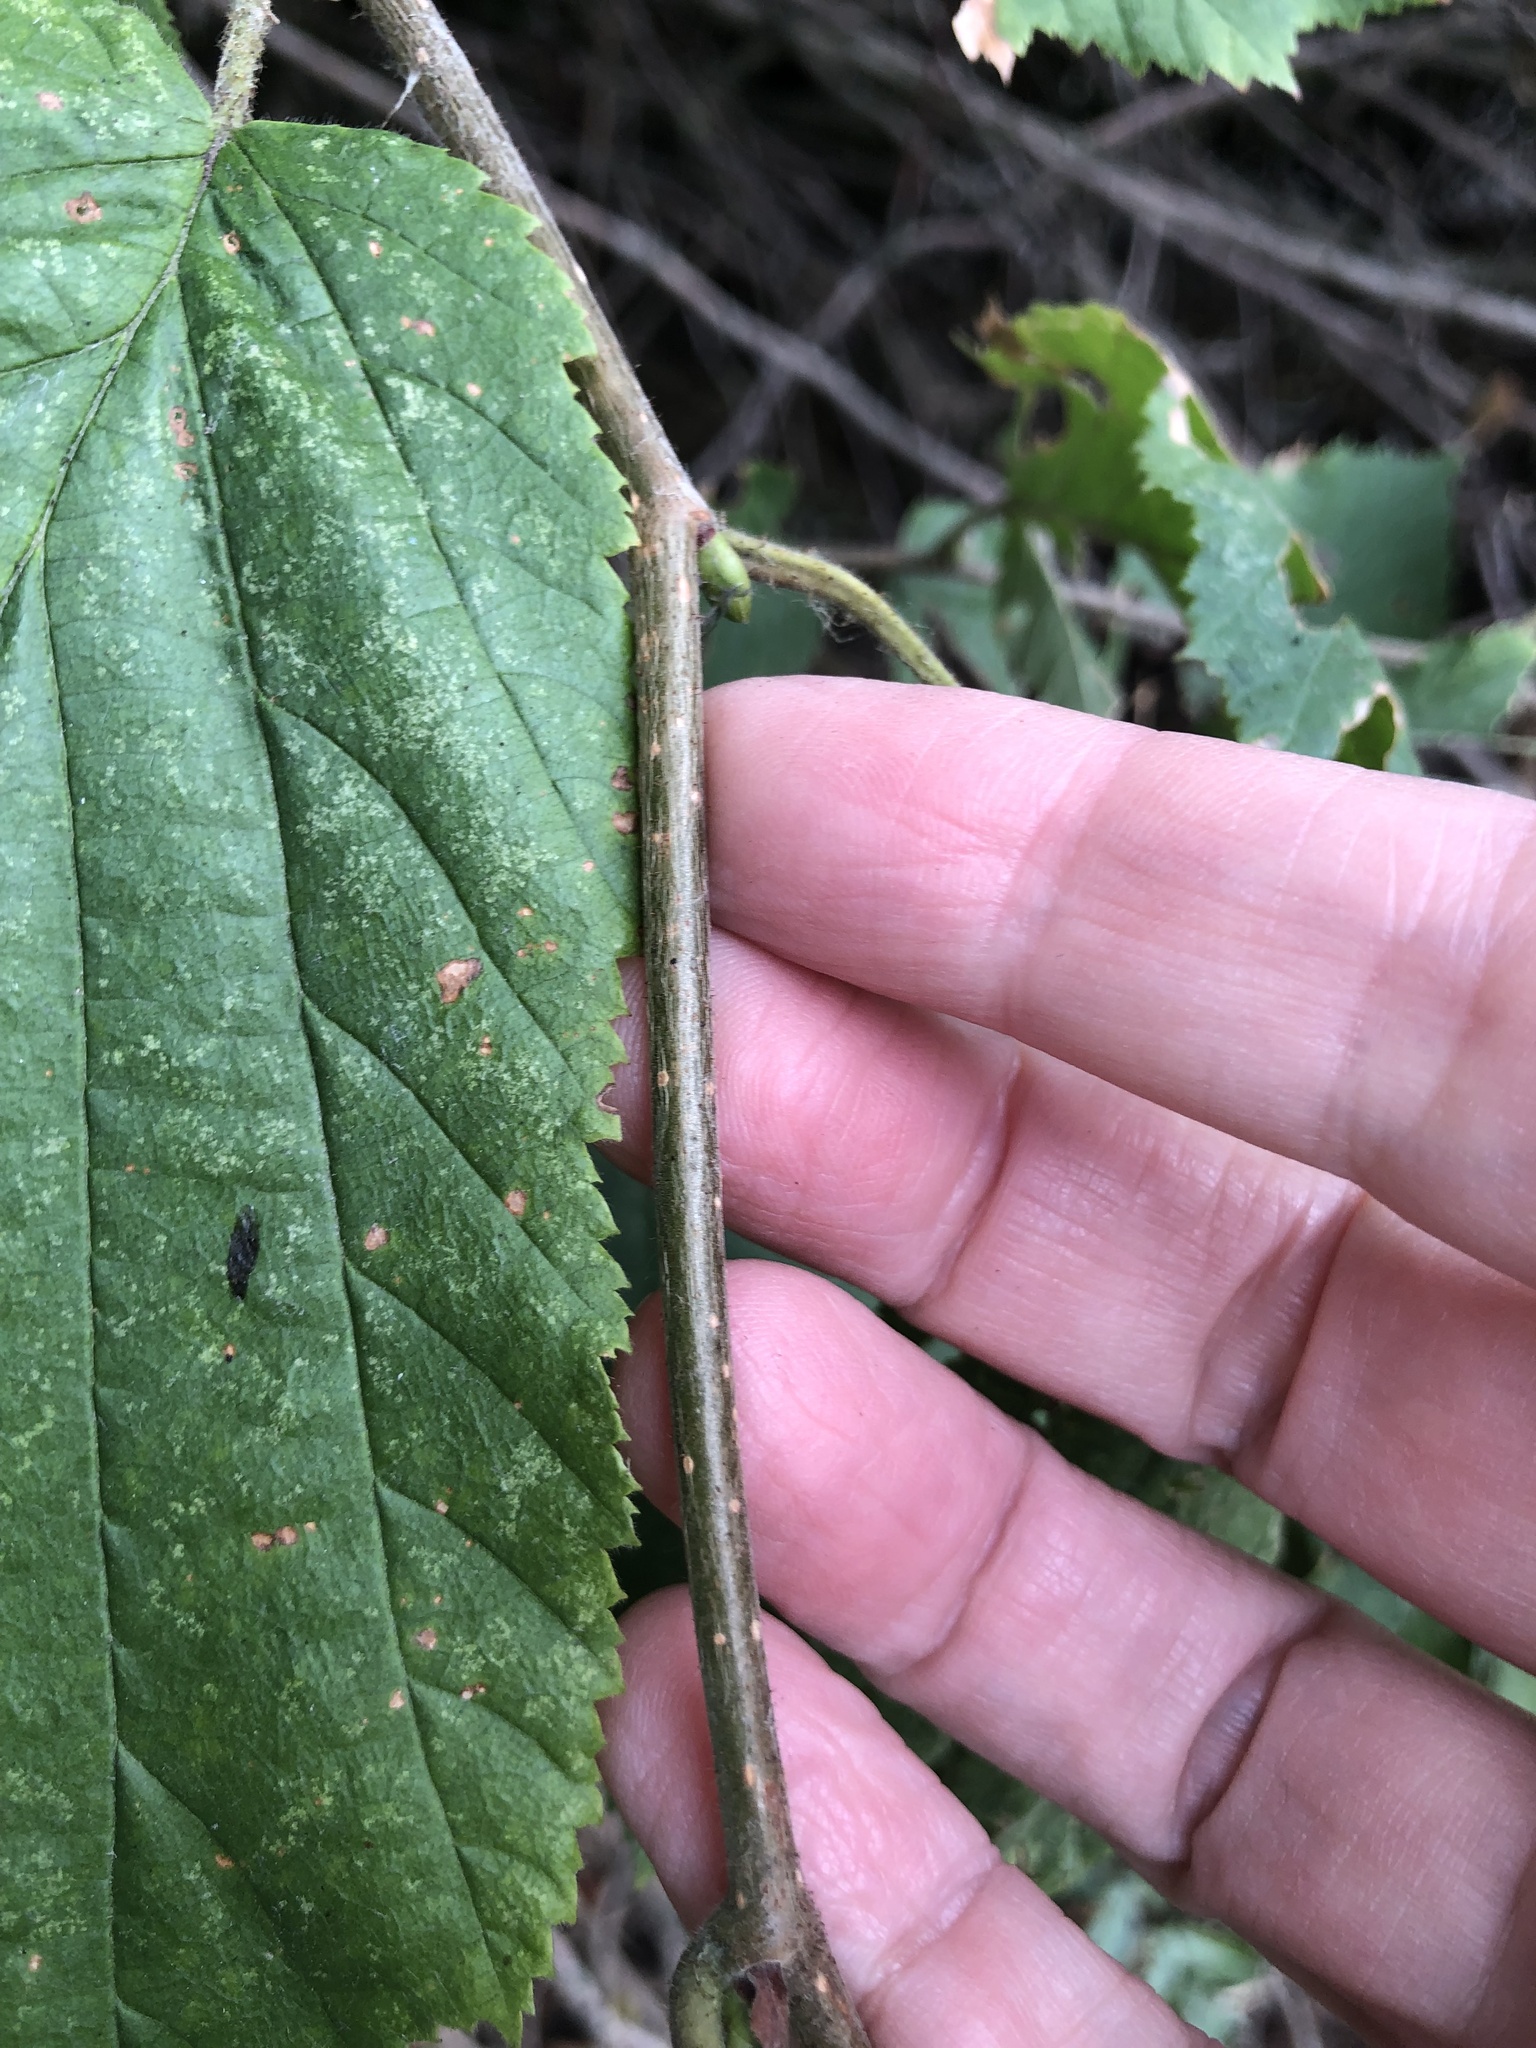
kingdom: Plantae
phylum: Tracheophyta
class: Magnoliopsida
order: Fagales
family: Betulaceae
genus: Corylus
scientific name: Corylus cornuta
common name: Beaked hazel
